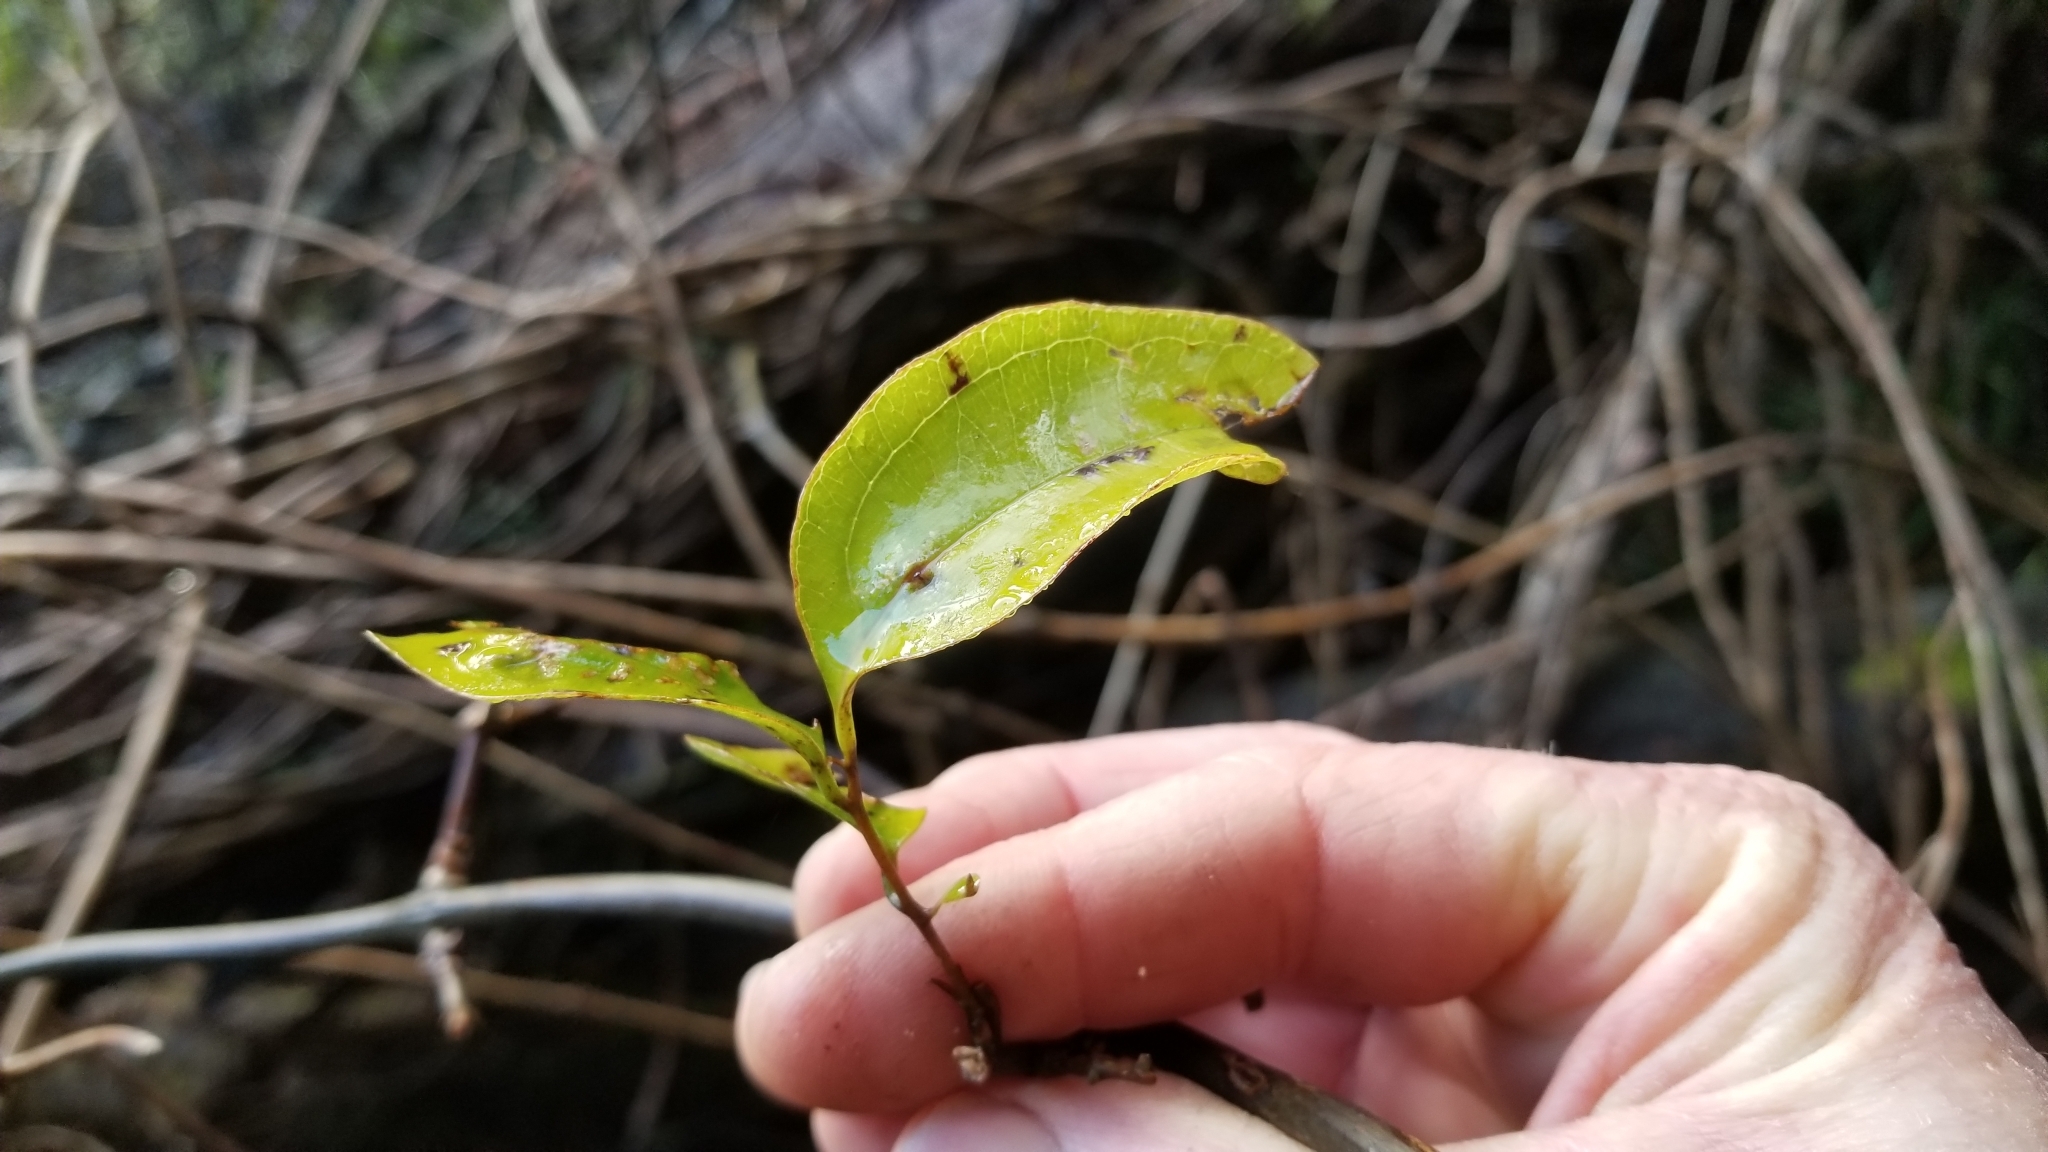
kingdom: Plantae
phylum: Tracheophyta
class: Liliopsida
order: Liliales
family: Ripogonaceae
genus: Ripogonum
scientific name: Ripogonum scandens
